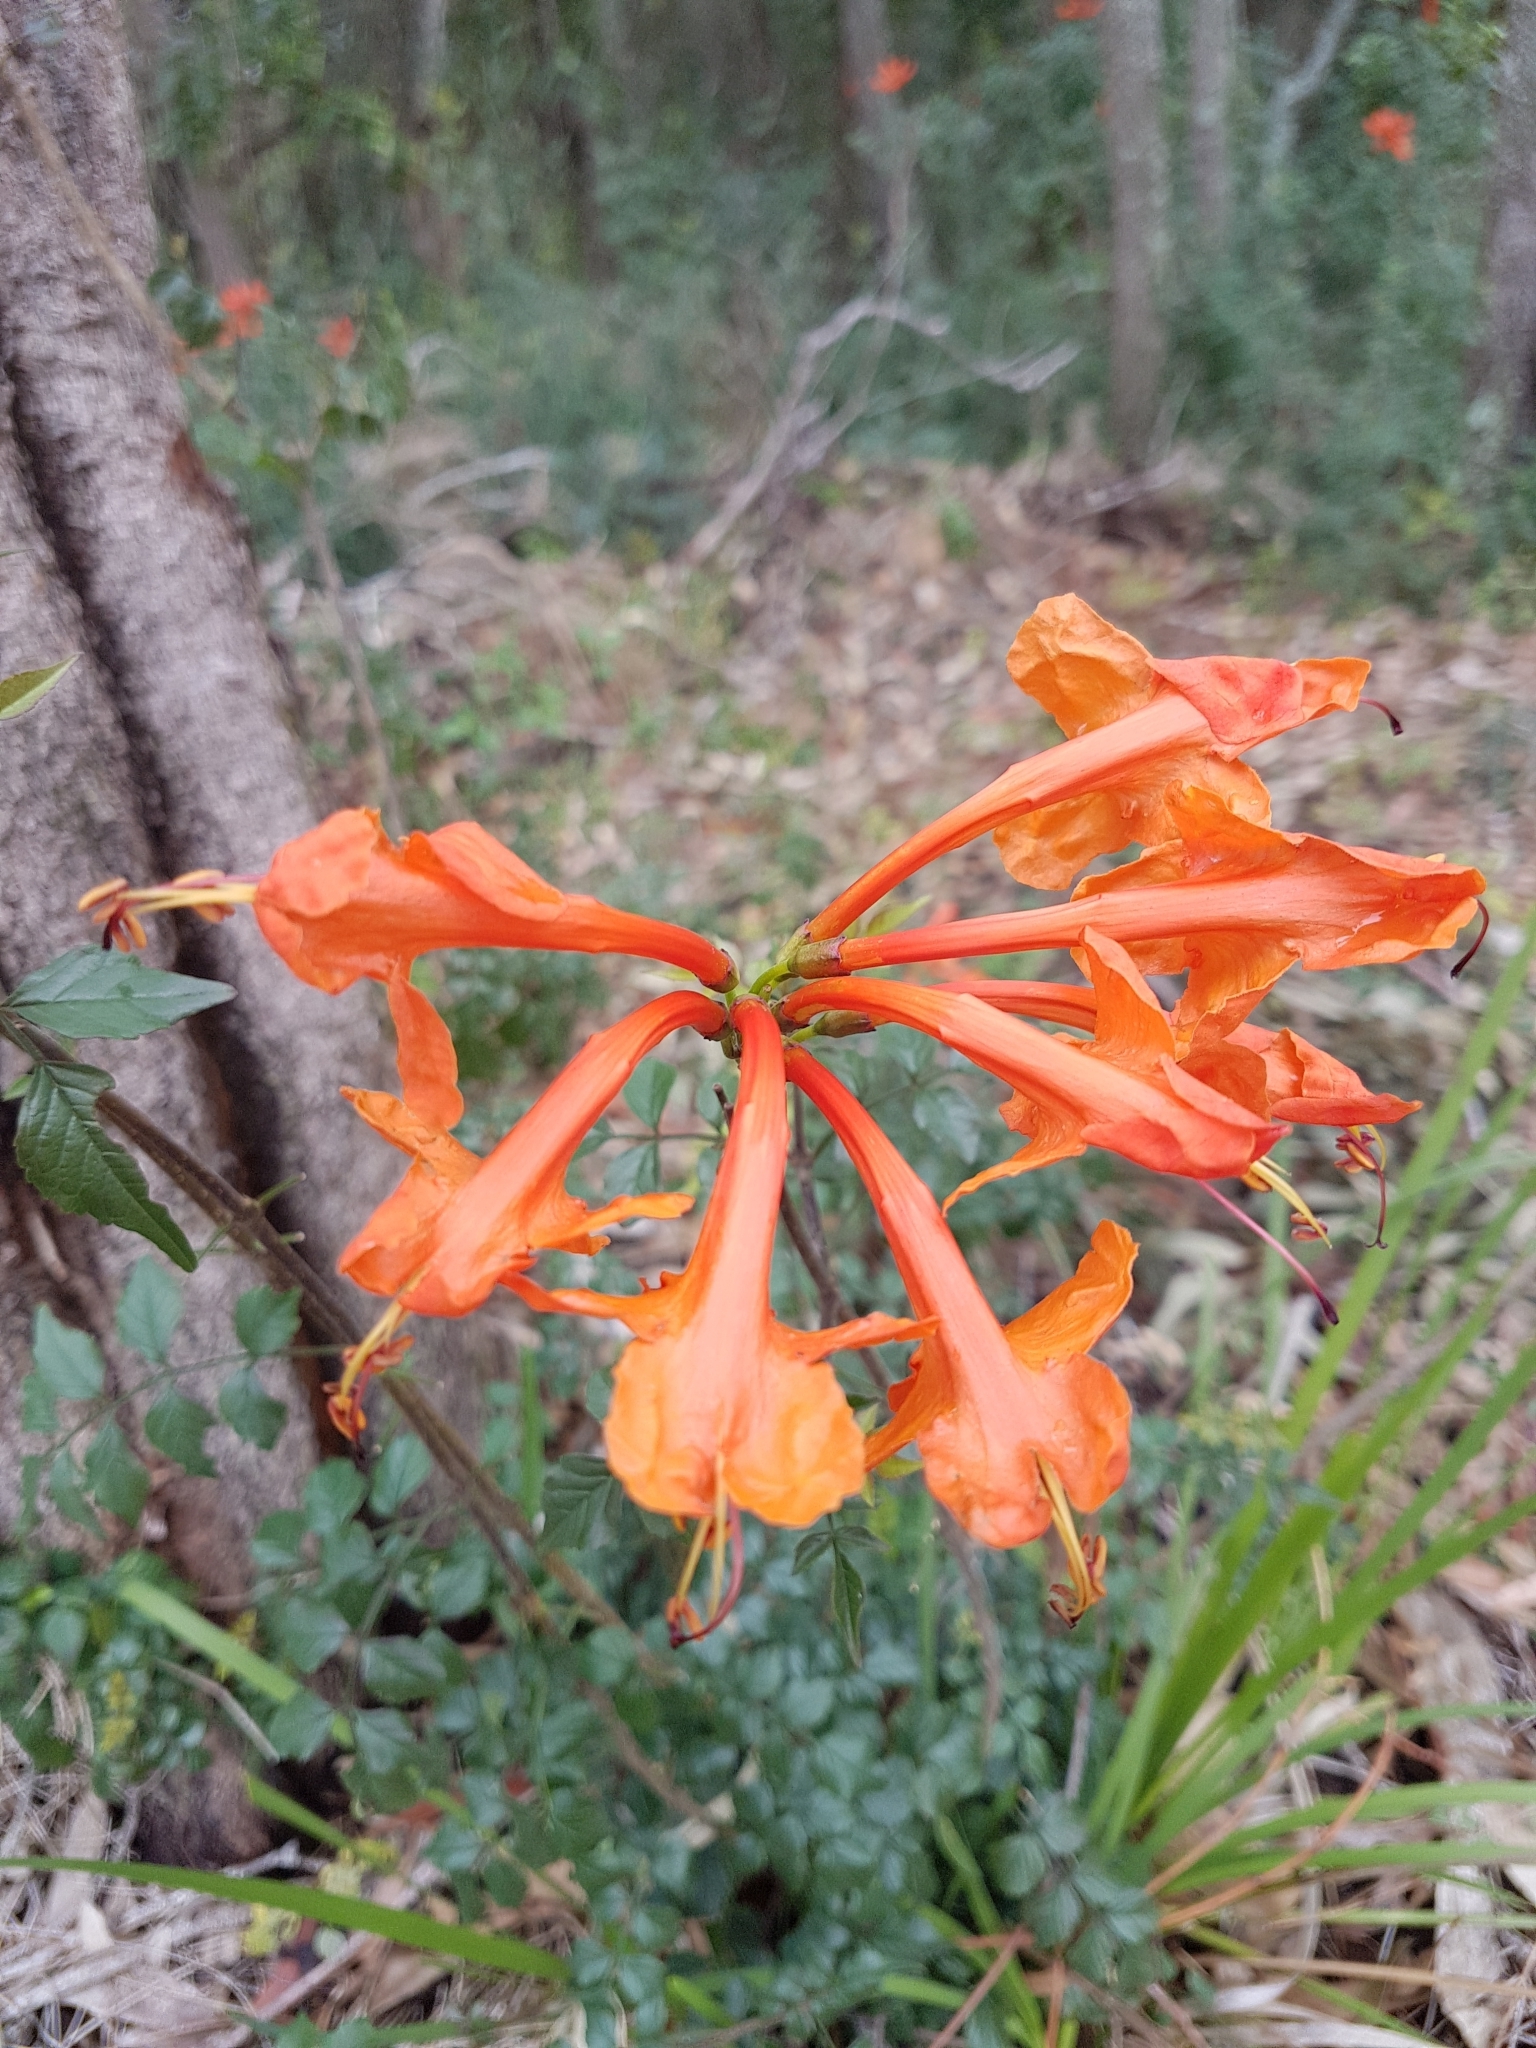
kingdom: Plantae
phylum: Tracheophyta
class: Magnoliopsida
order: Lamiales
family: Bignoniaceae
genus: Tecomaria
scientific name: Tecomaria capensis
